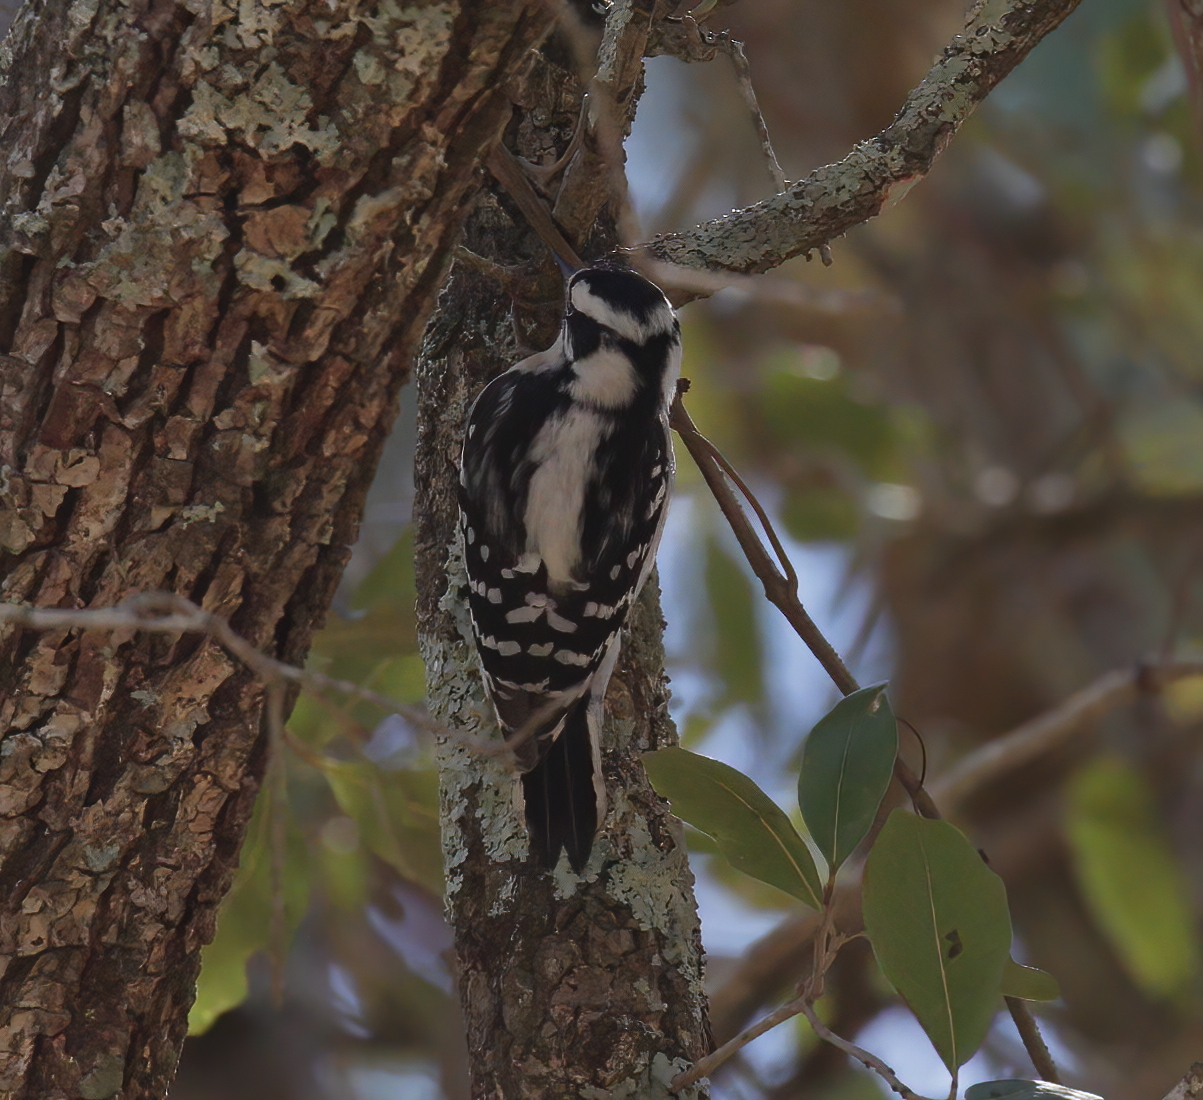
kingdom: Animalia
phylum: Chordata
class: Aves
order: Piciformes
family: Picidae
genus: Dryobates
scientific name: Dryobates pubescens
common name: Downy woodpecker
